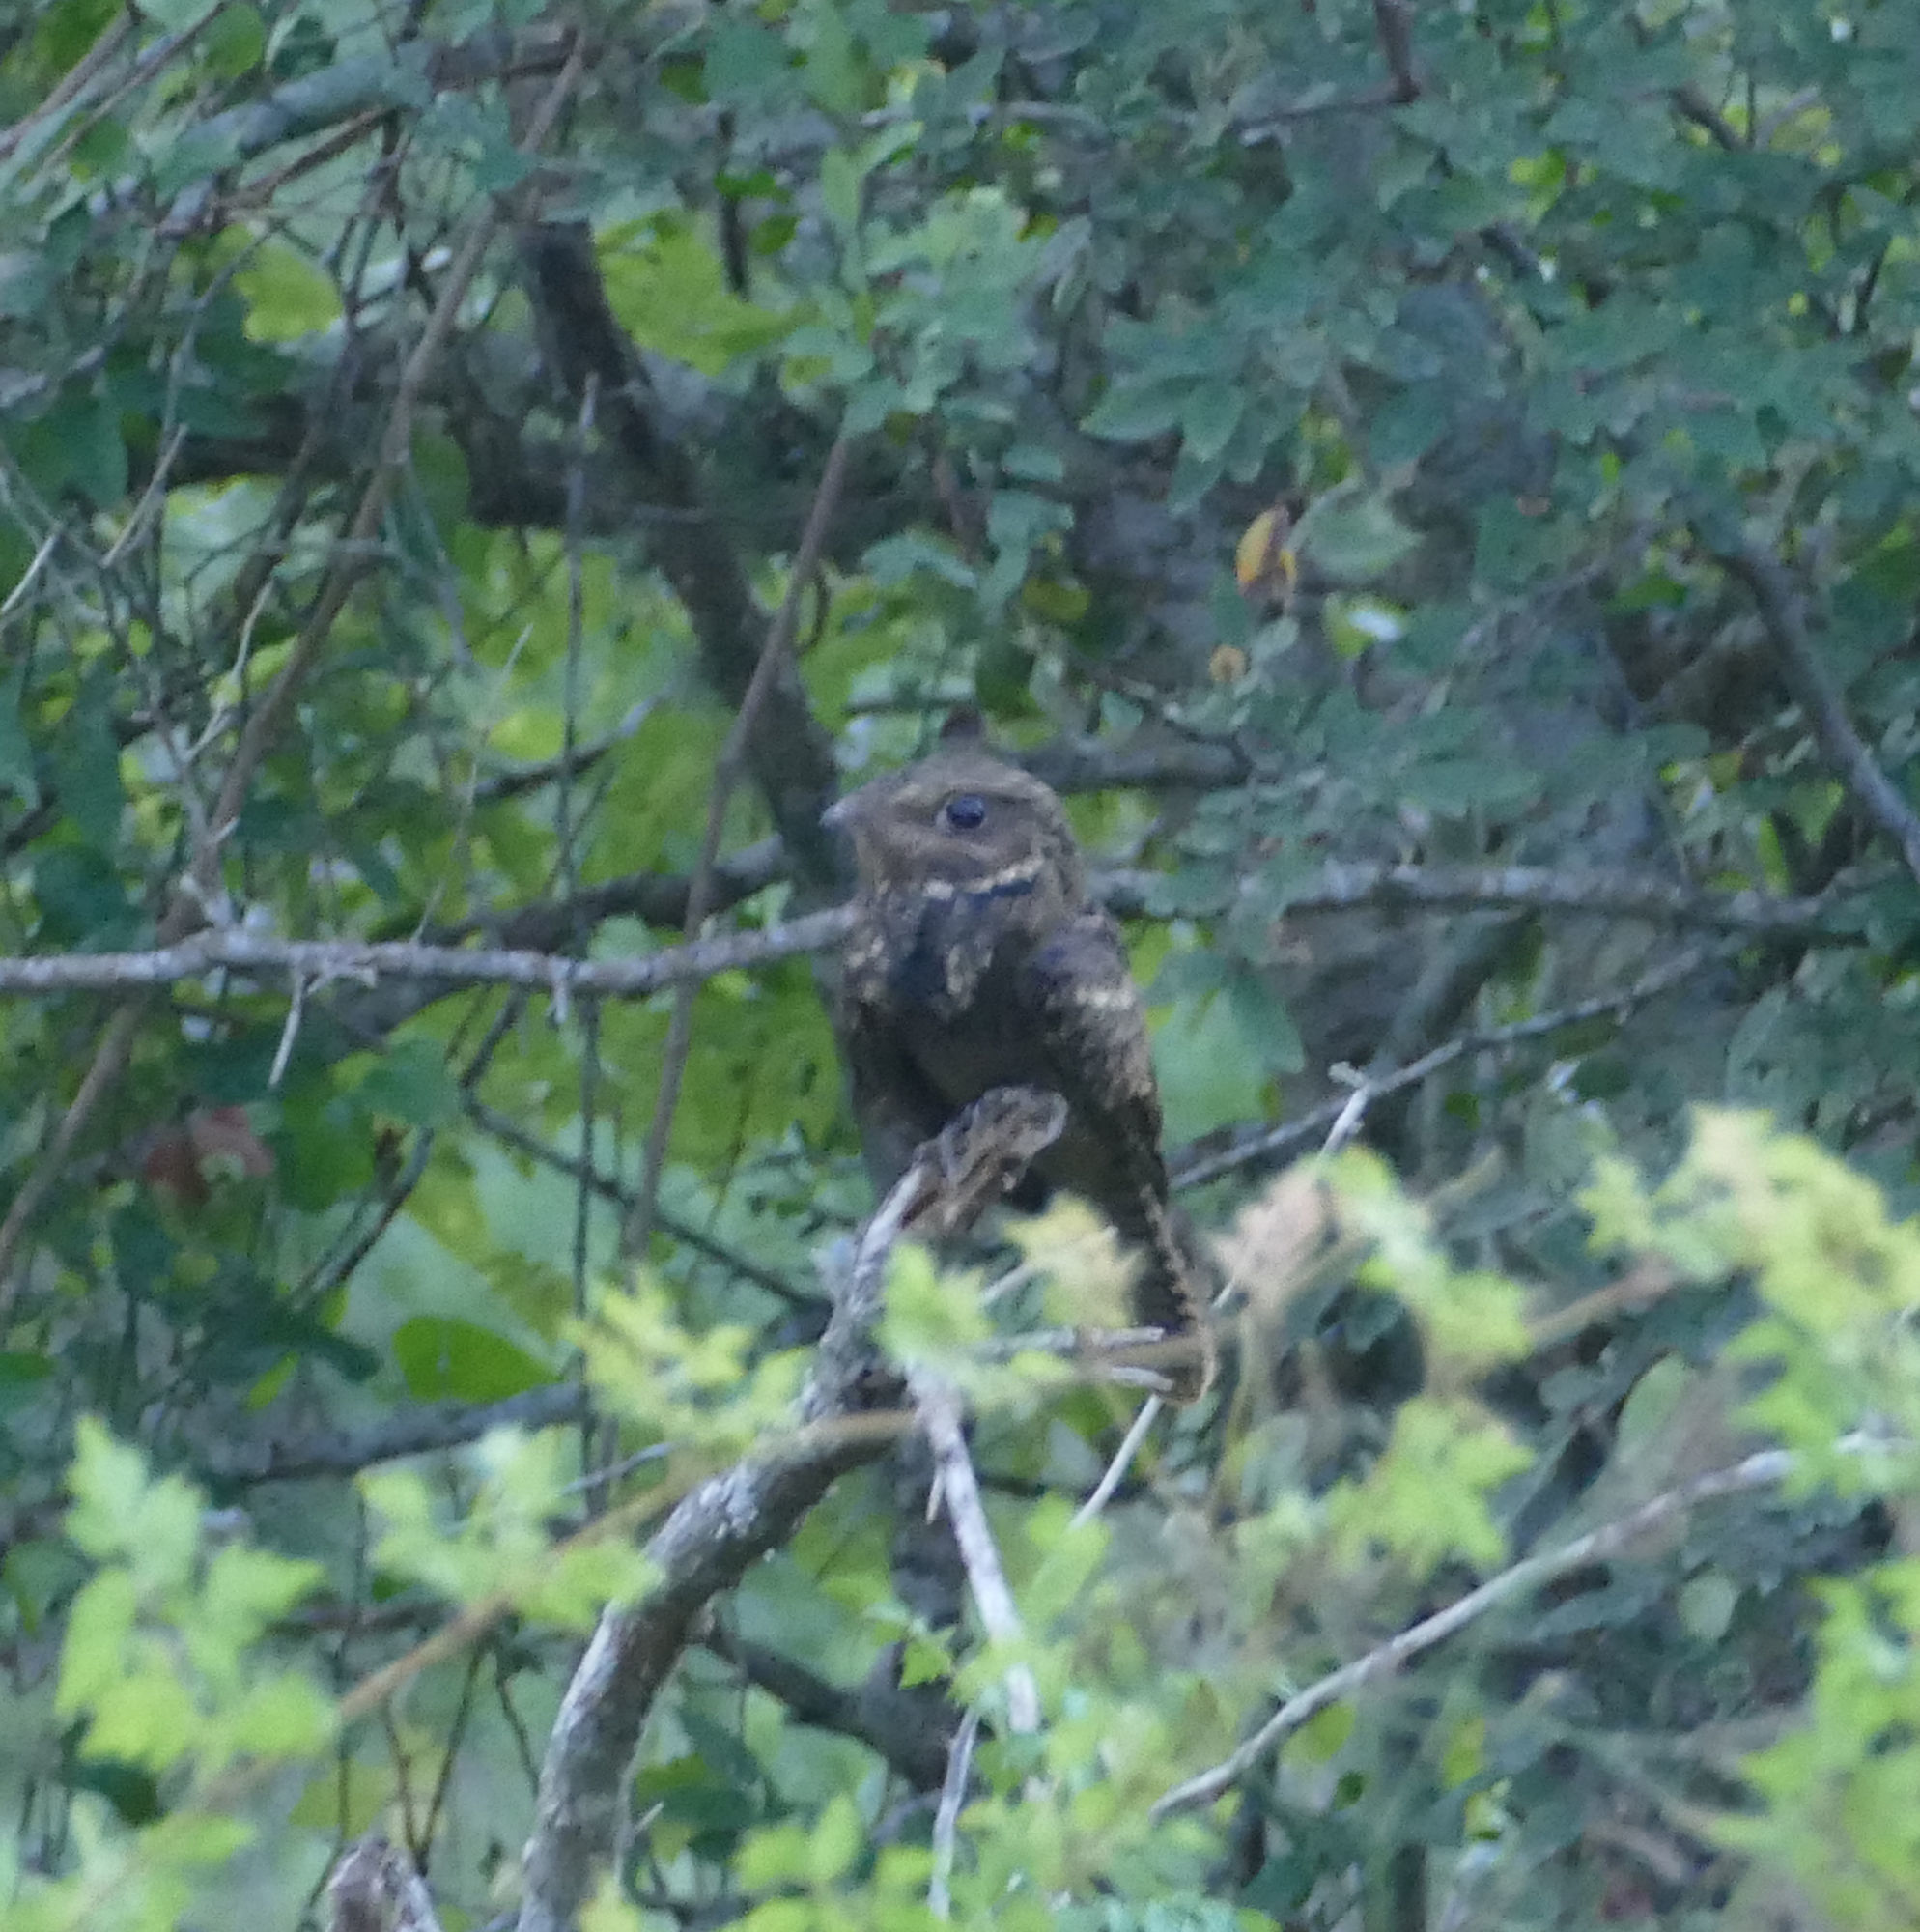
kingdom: Animalia
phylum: Chordata
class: Aves
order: Caprimulgiformes
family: Caprimulgidae
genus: Antrostomus
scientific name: Antrostomus carolinensis
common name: Chuck-will's-widow
